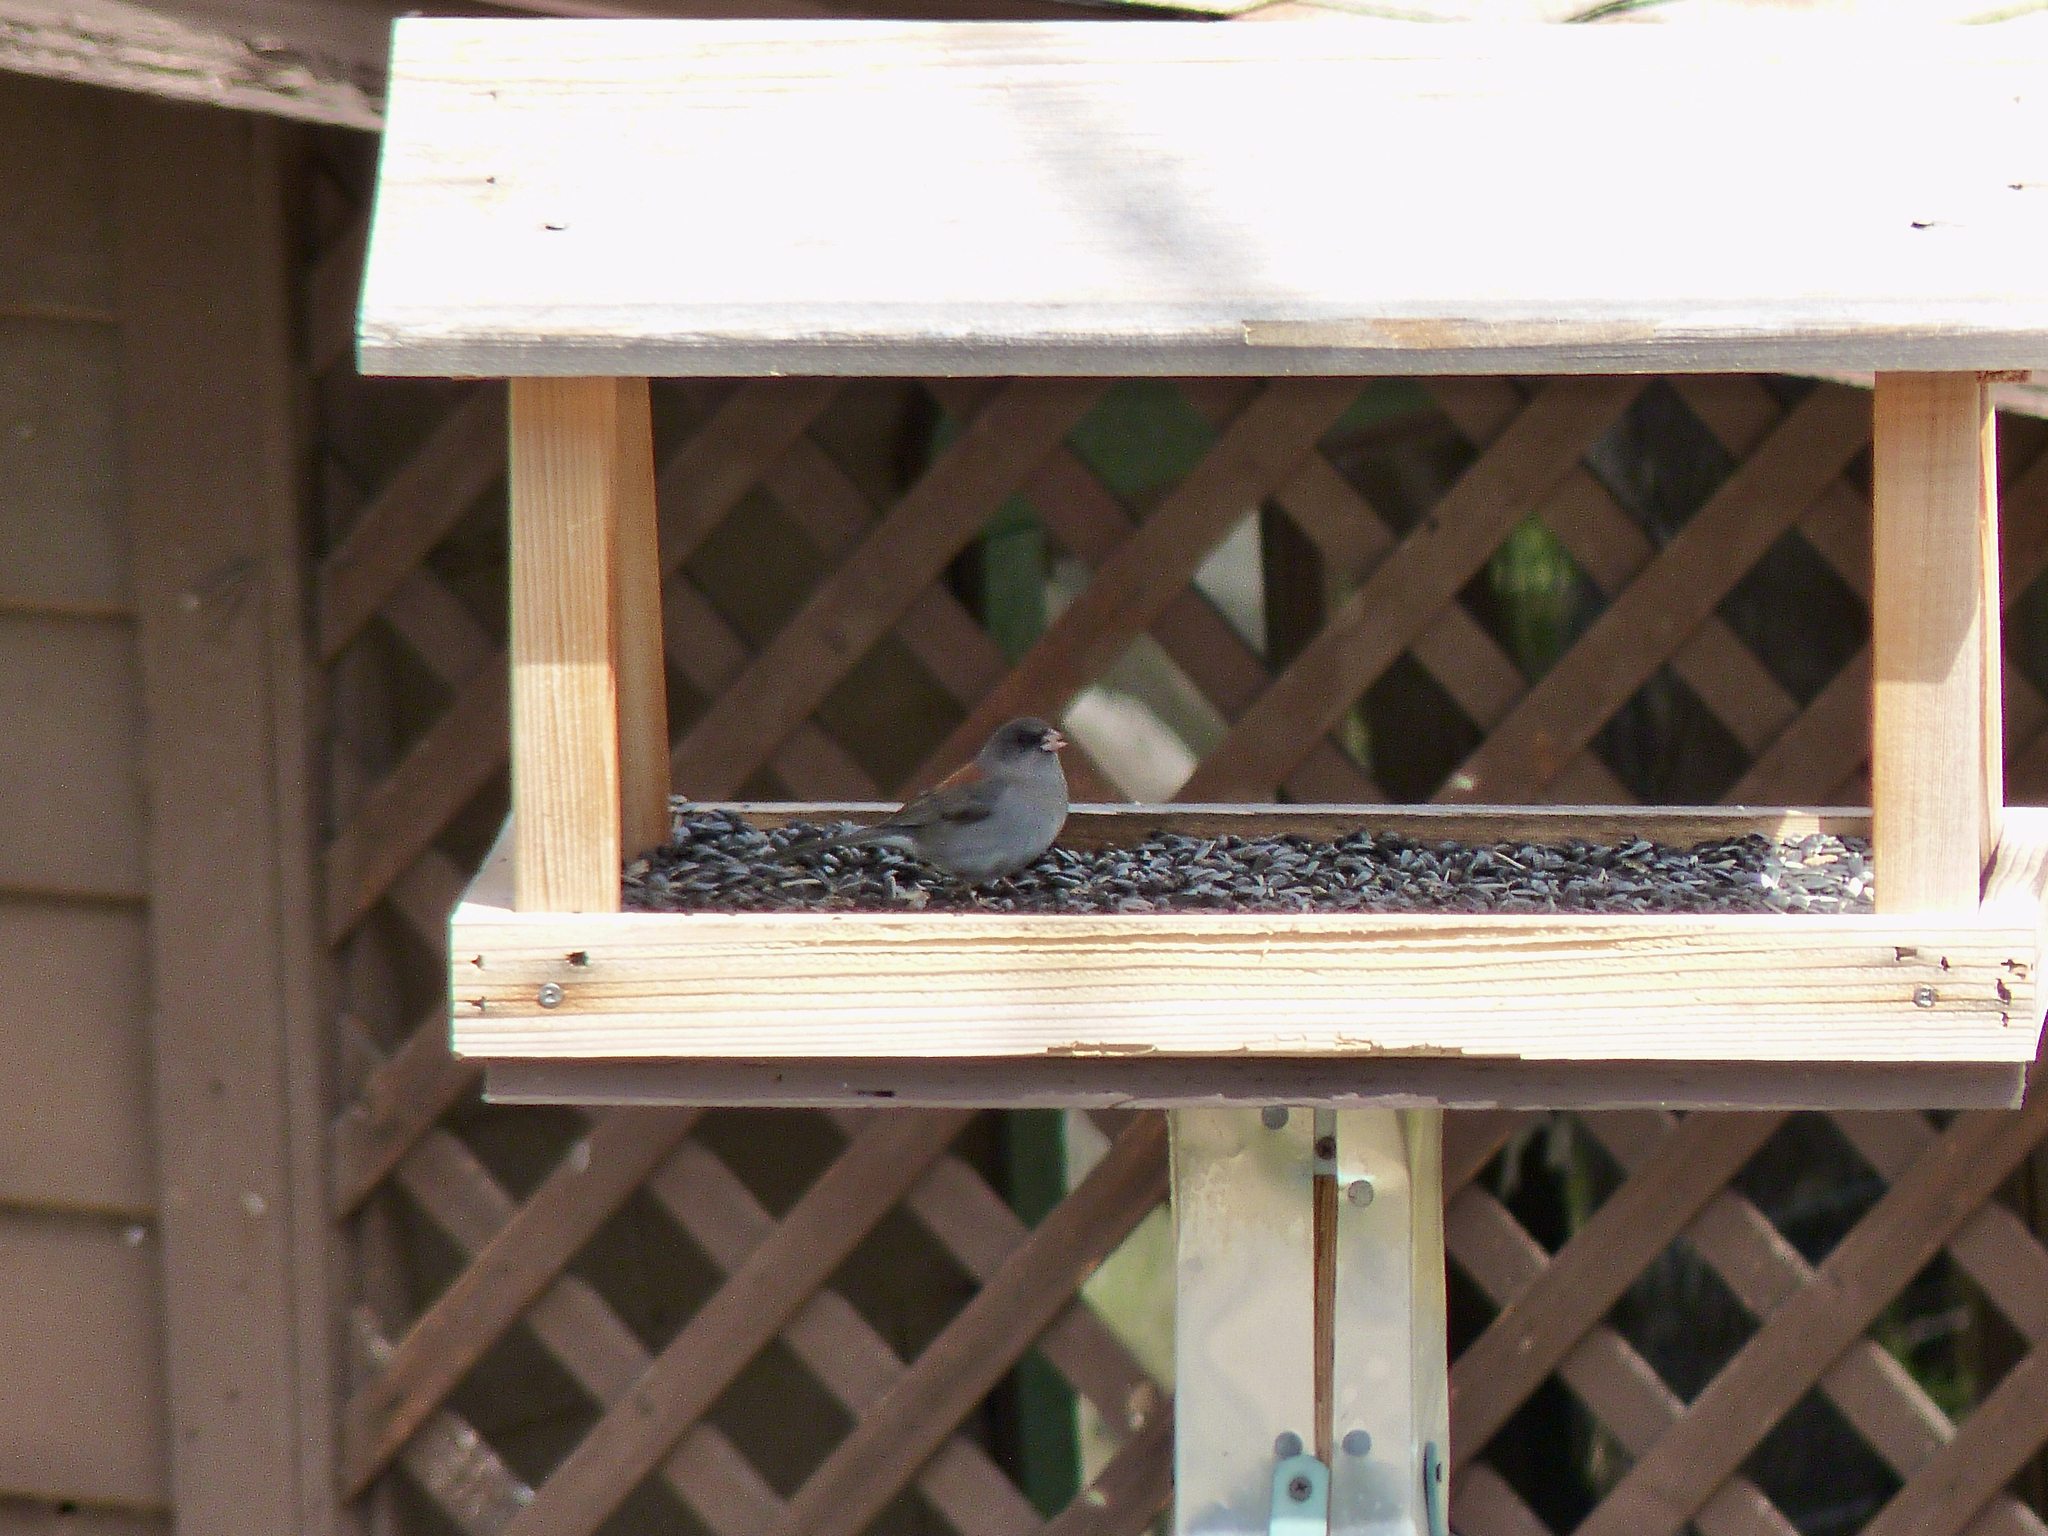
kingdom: Animalia
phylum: Chordata
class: Aves
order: Passeriformes
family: Passerellidae
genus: Junco
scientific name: Junco hyemalis
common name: Dark-eyed junco
